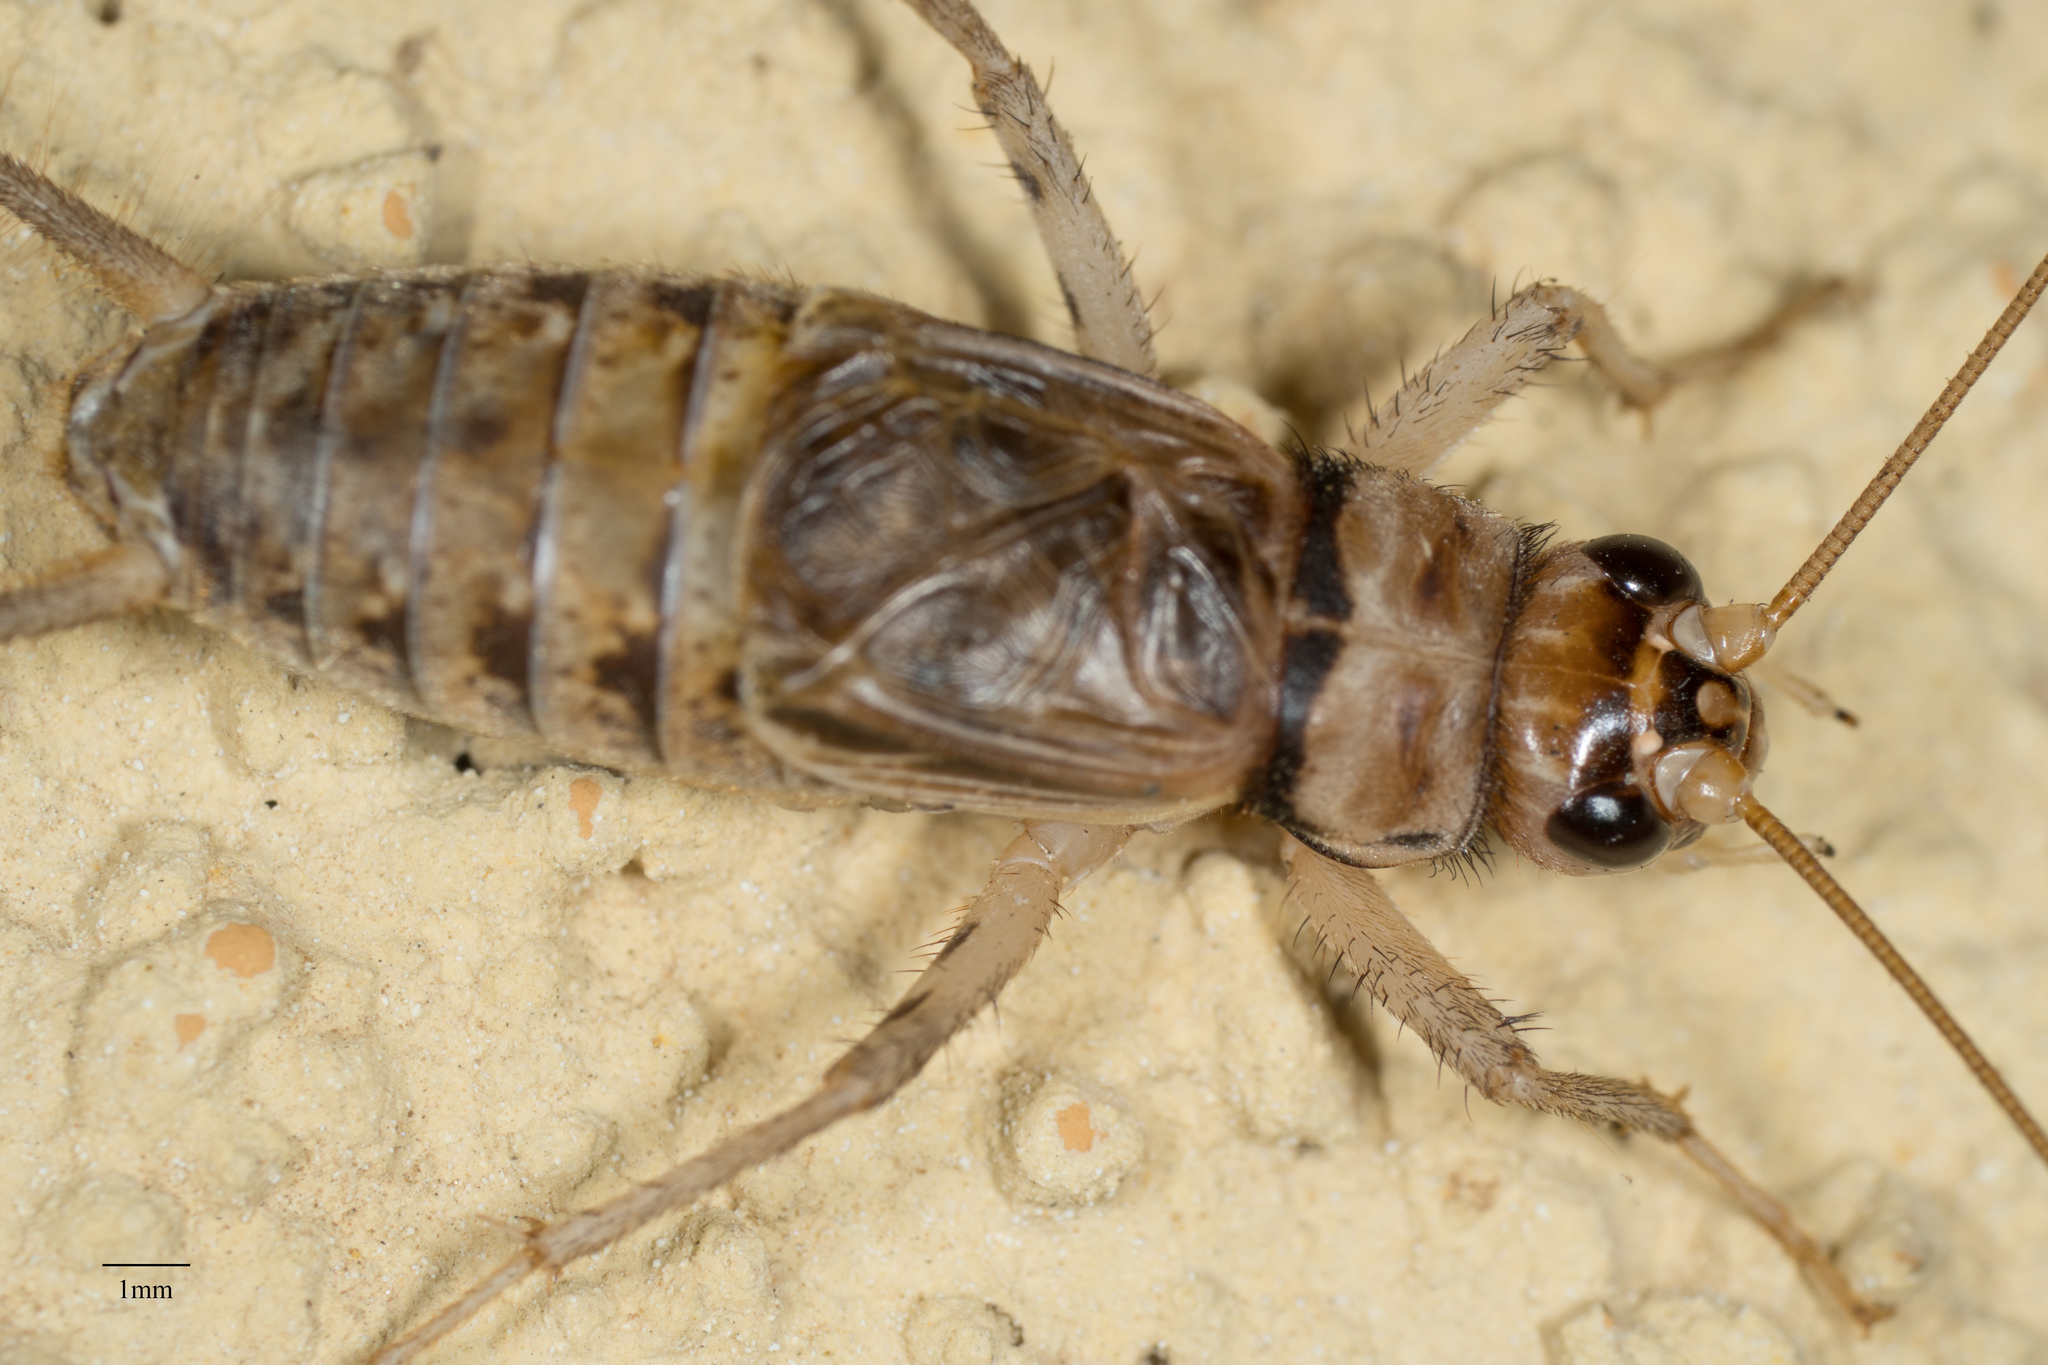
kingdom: Animalia
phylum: Arthropoda
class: Insecta
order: Orthoptera
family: Gryllidae
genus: Gryllodes
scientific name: Gryllodes sigillatus
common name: Tropical house cricket
